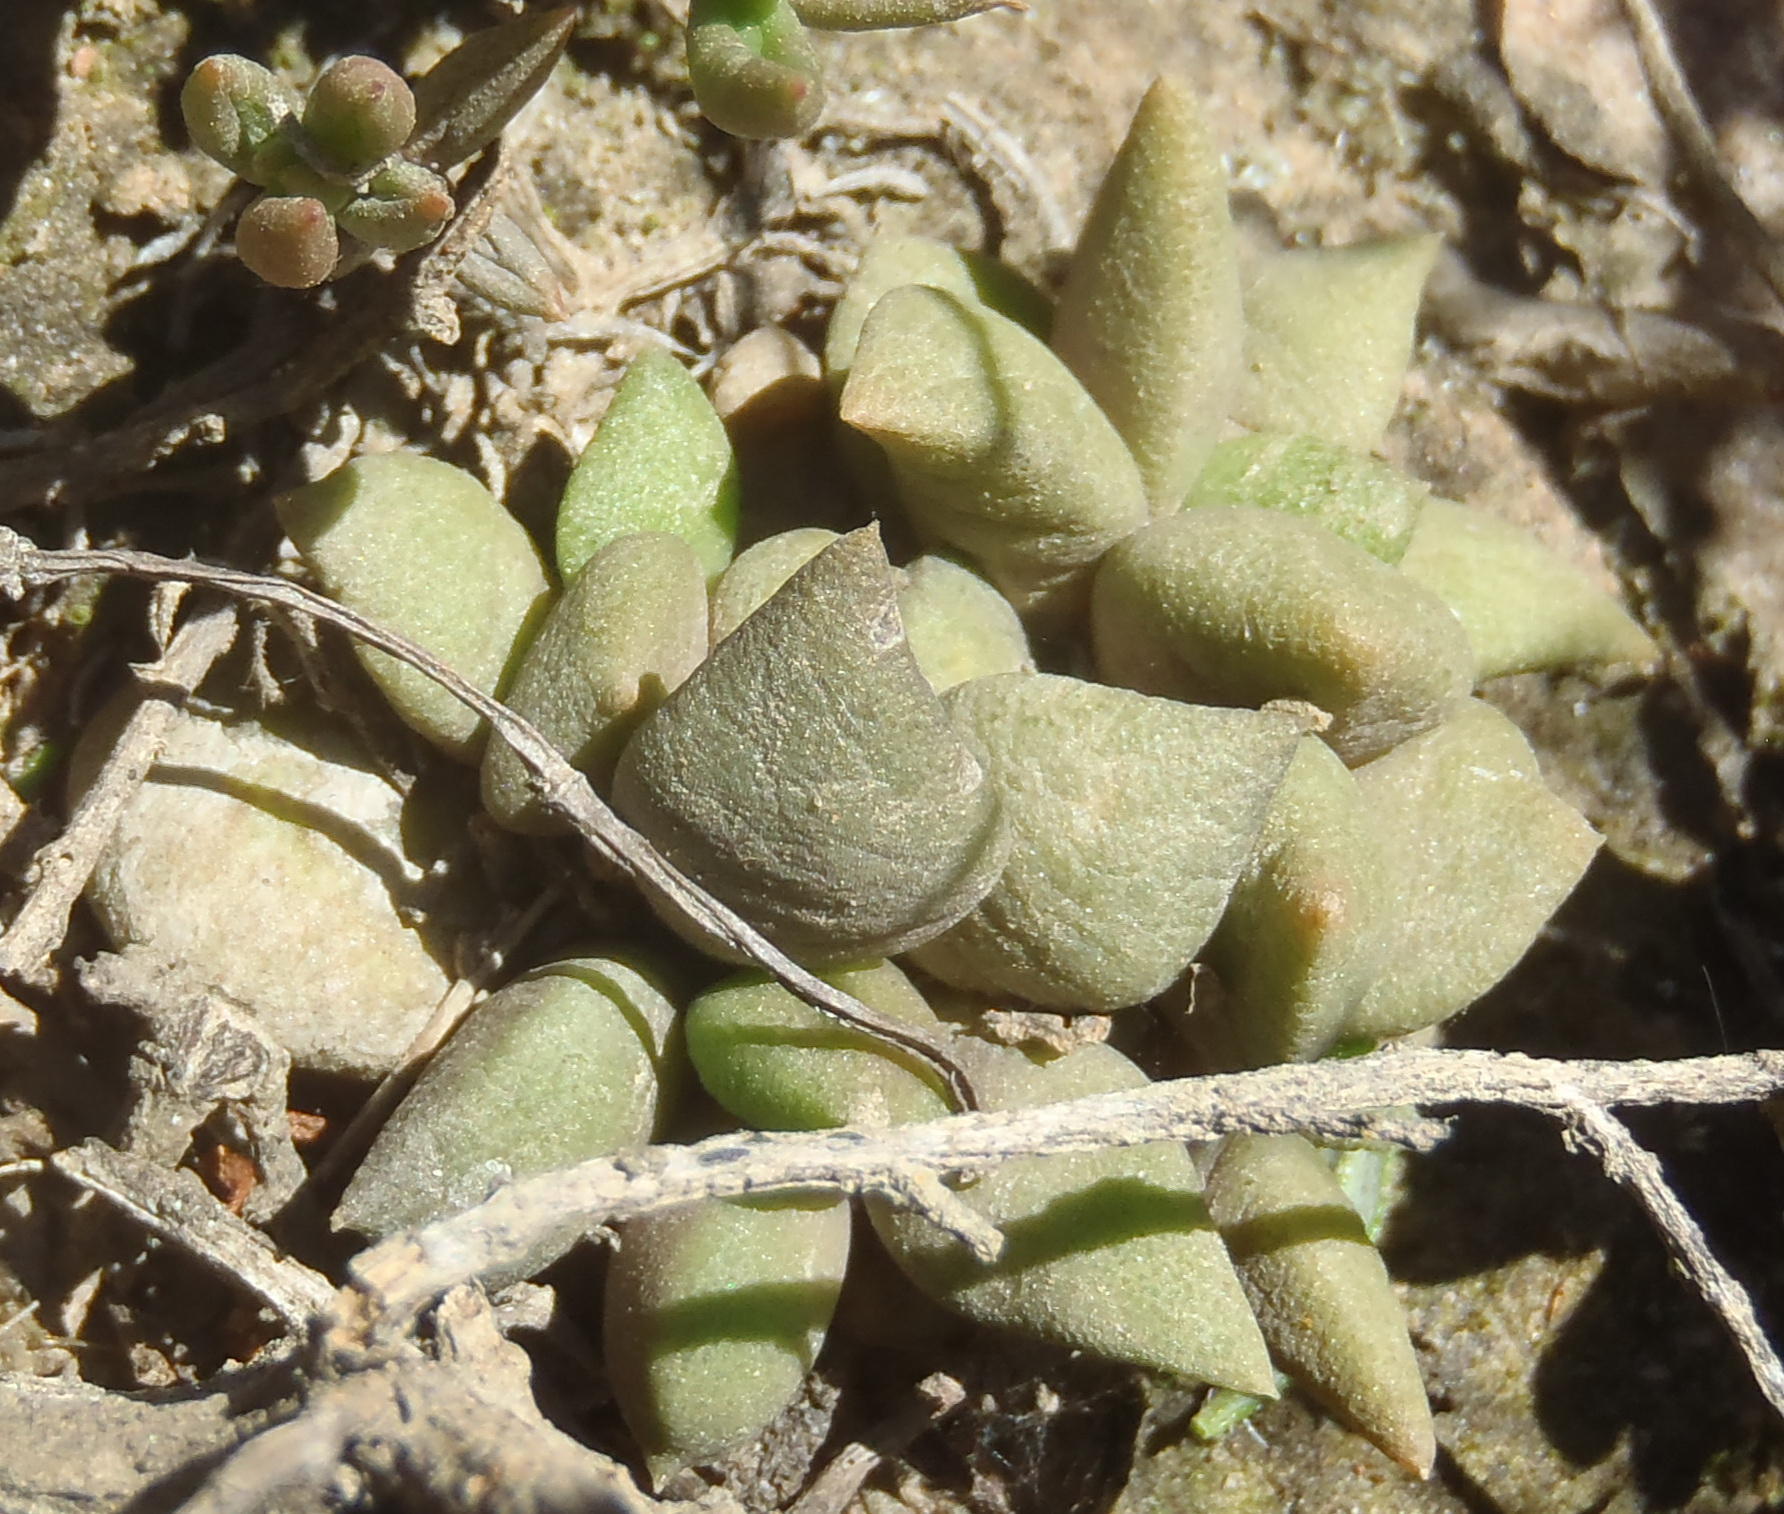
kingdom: Plantae
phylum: Tracheophyta
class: Magnoliopsida
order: Caryophyllales
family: Anacampserotaceae
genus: Anacampseros
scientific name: Anacampseros telephiastrum
